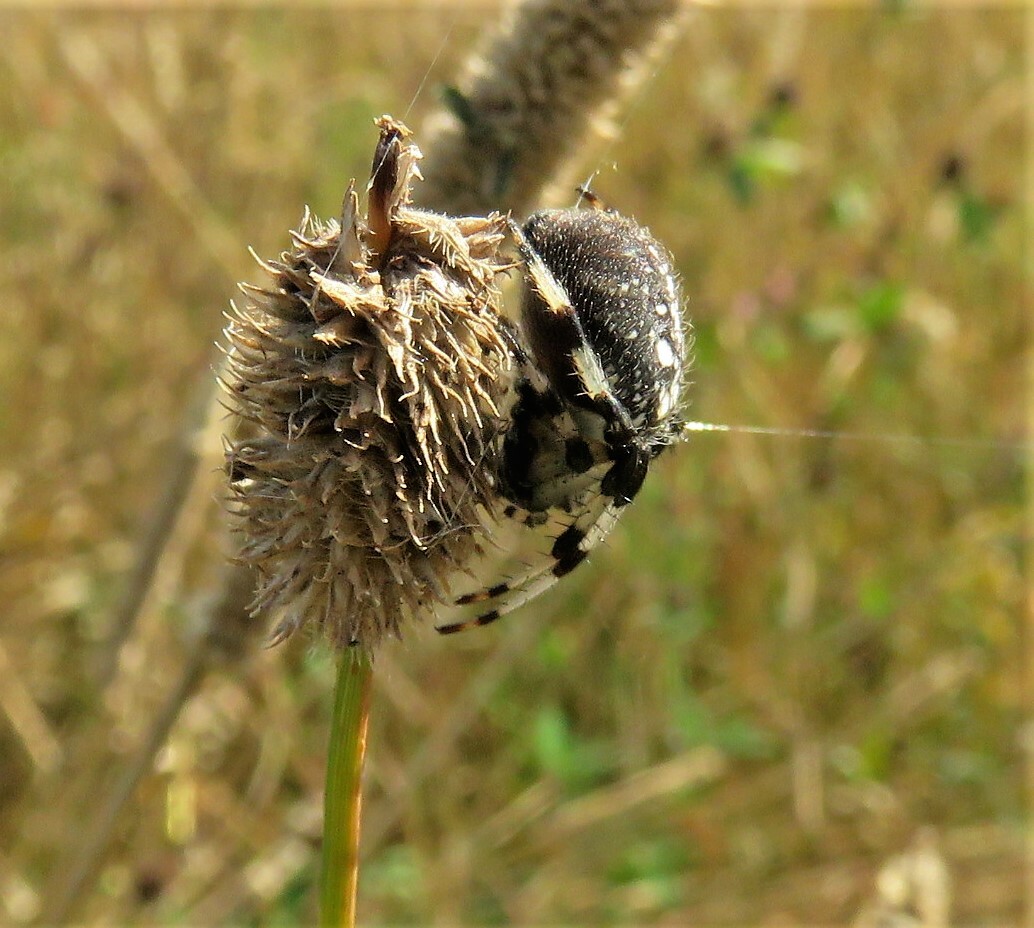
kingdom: Animalia
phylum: Arthropoda
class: Arachnida
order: Araneae
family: Araneidae
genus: Araneus
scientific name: Araneus trifolium
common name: Shamrock orbweaver
